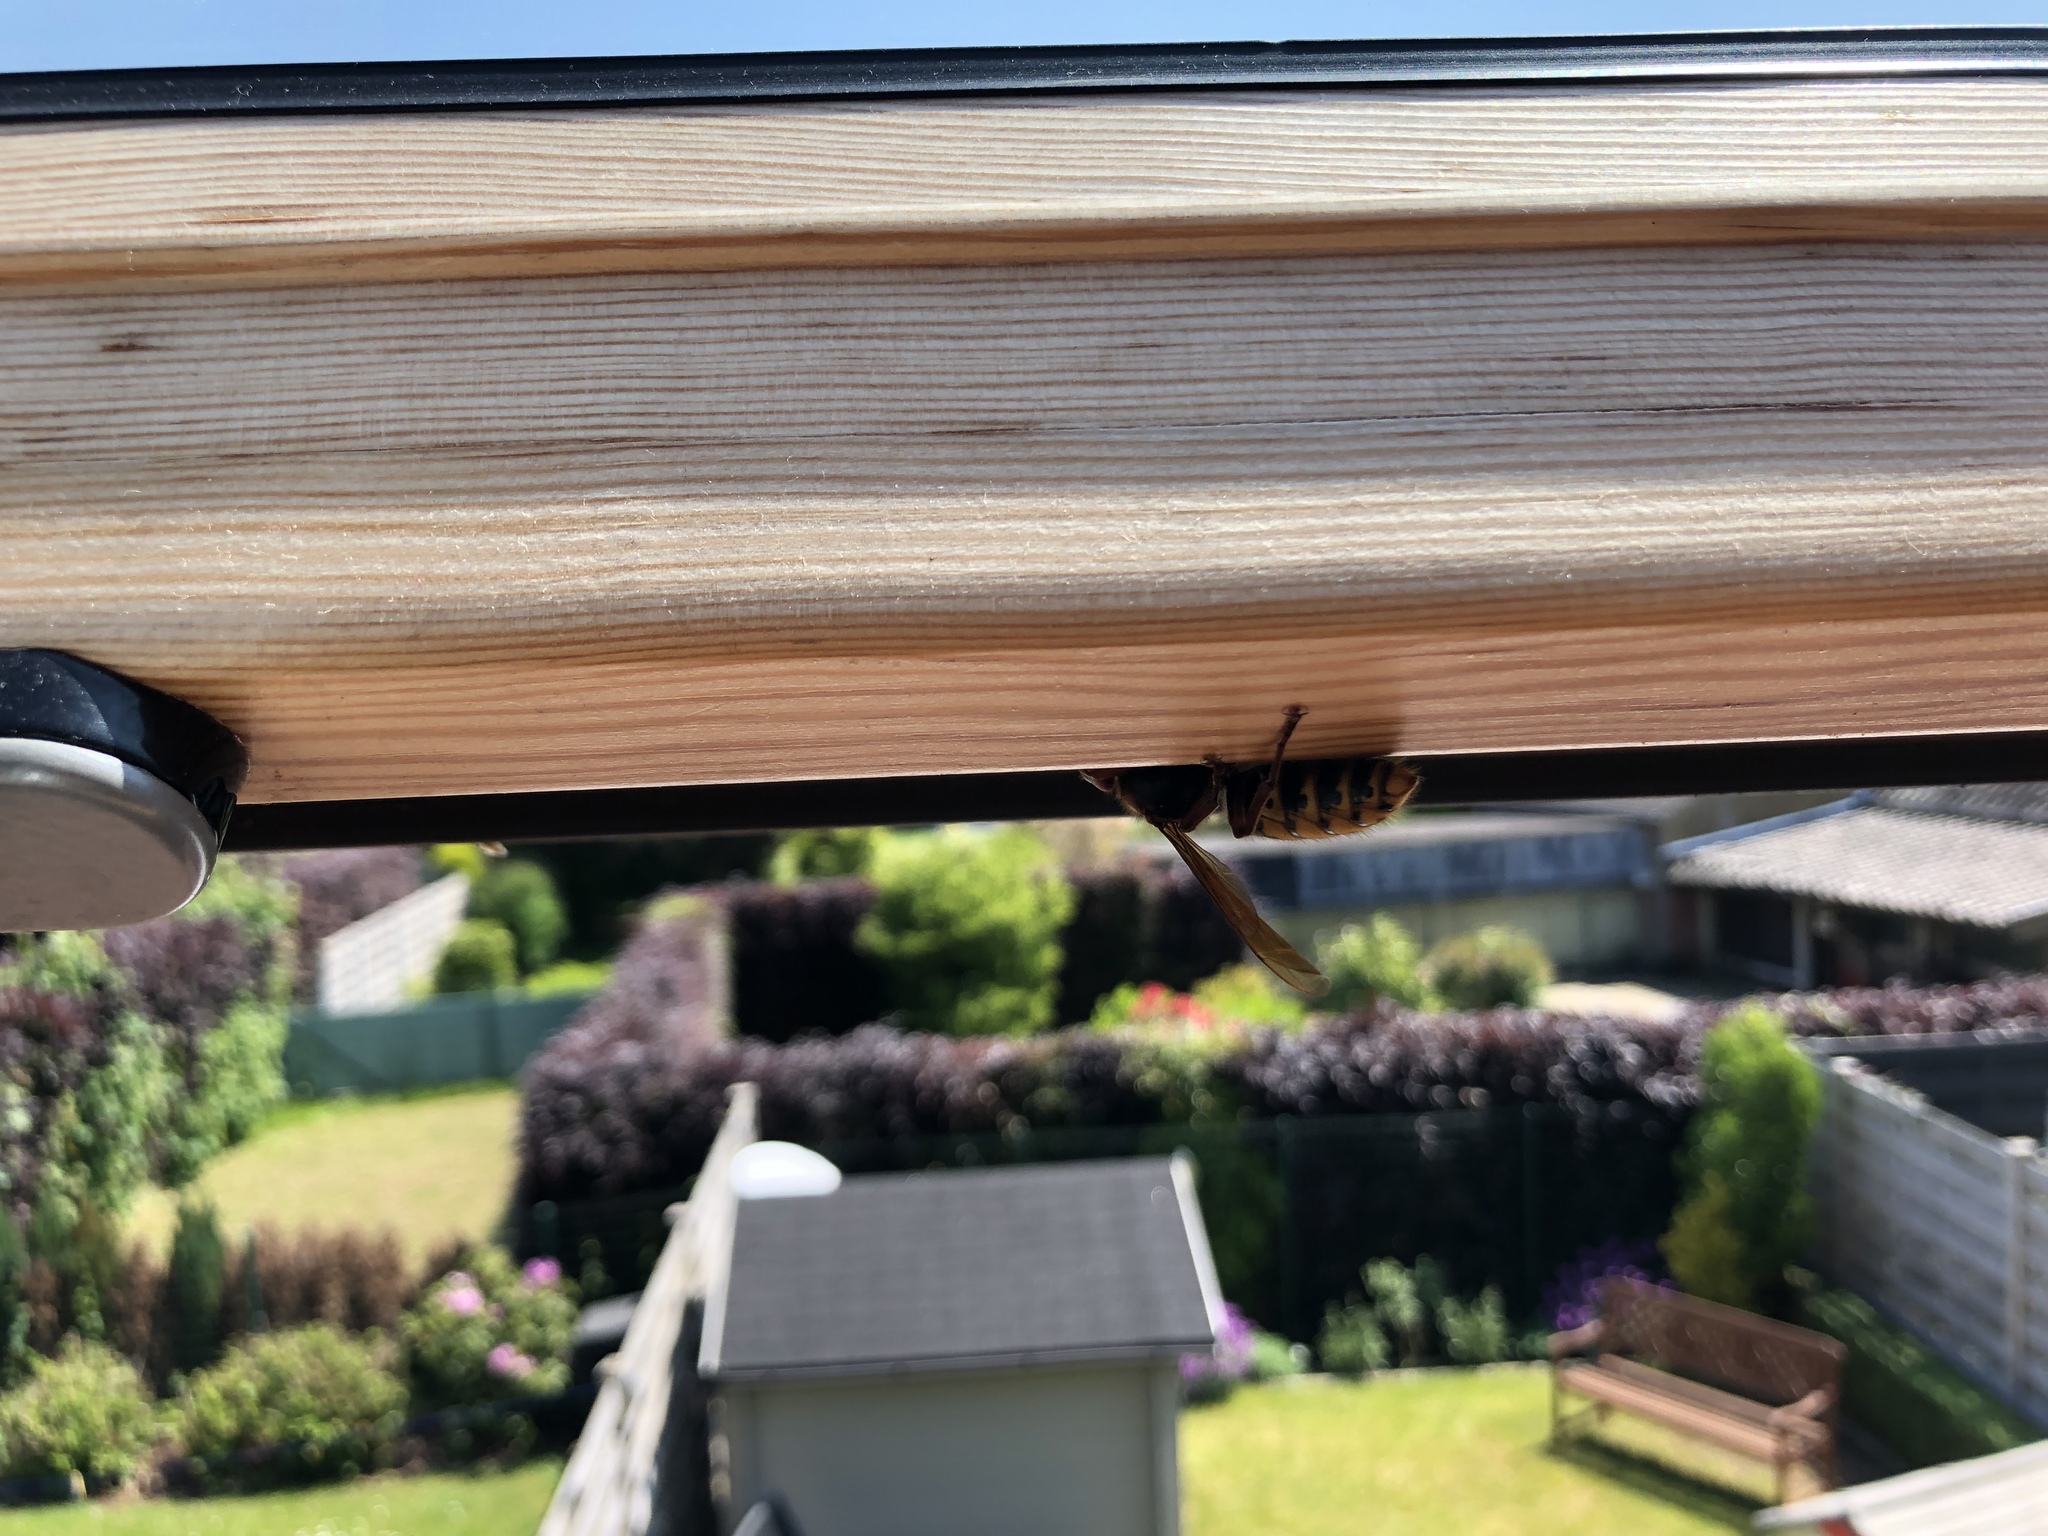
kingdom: Animalia
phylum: Arthropoda
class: Insecta
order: Hymenoptera
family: Vespidae
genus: Vespa
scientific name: Vespa crabro
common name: Hornet
